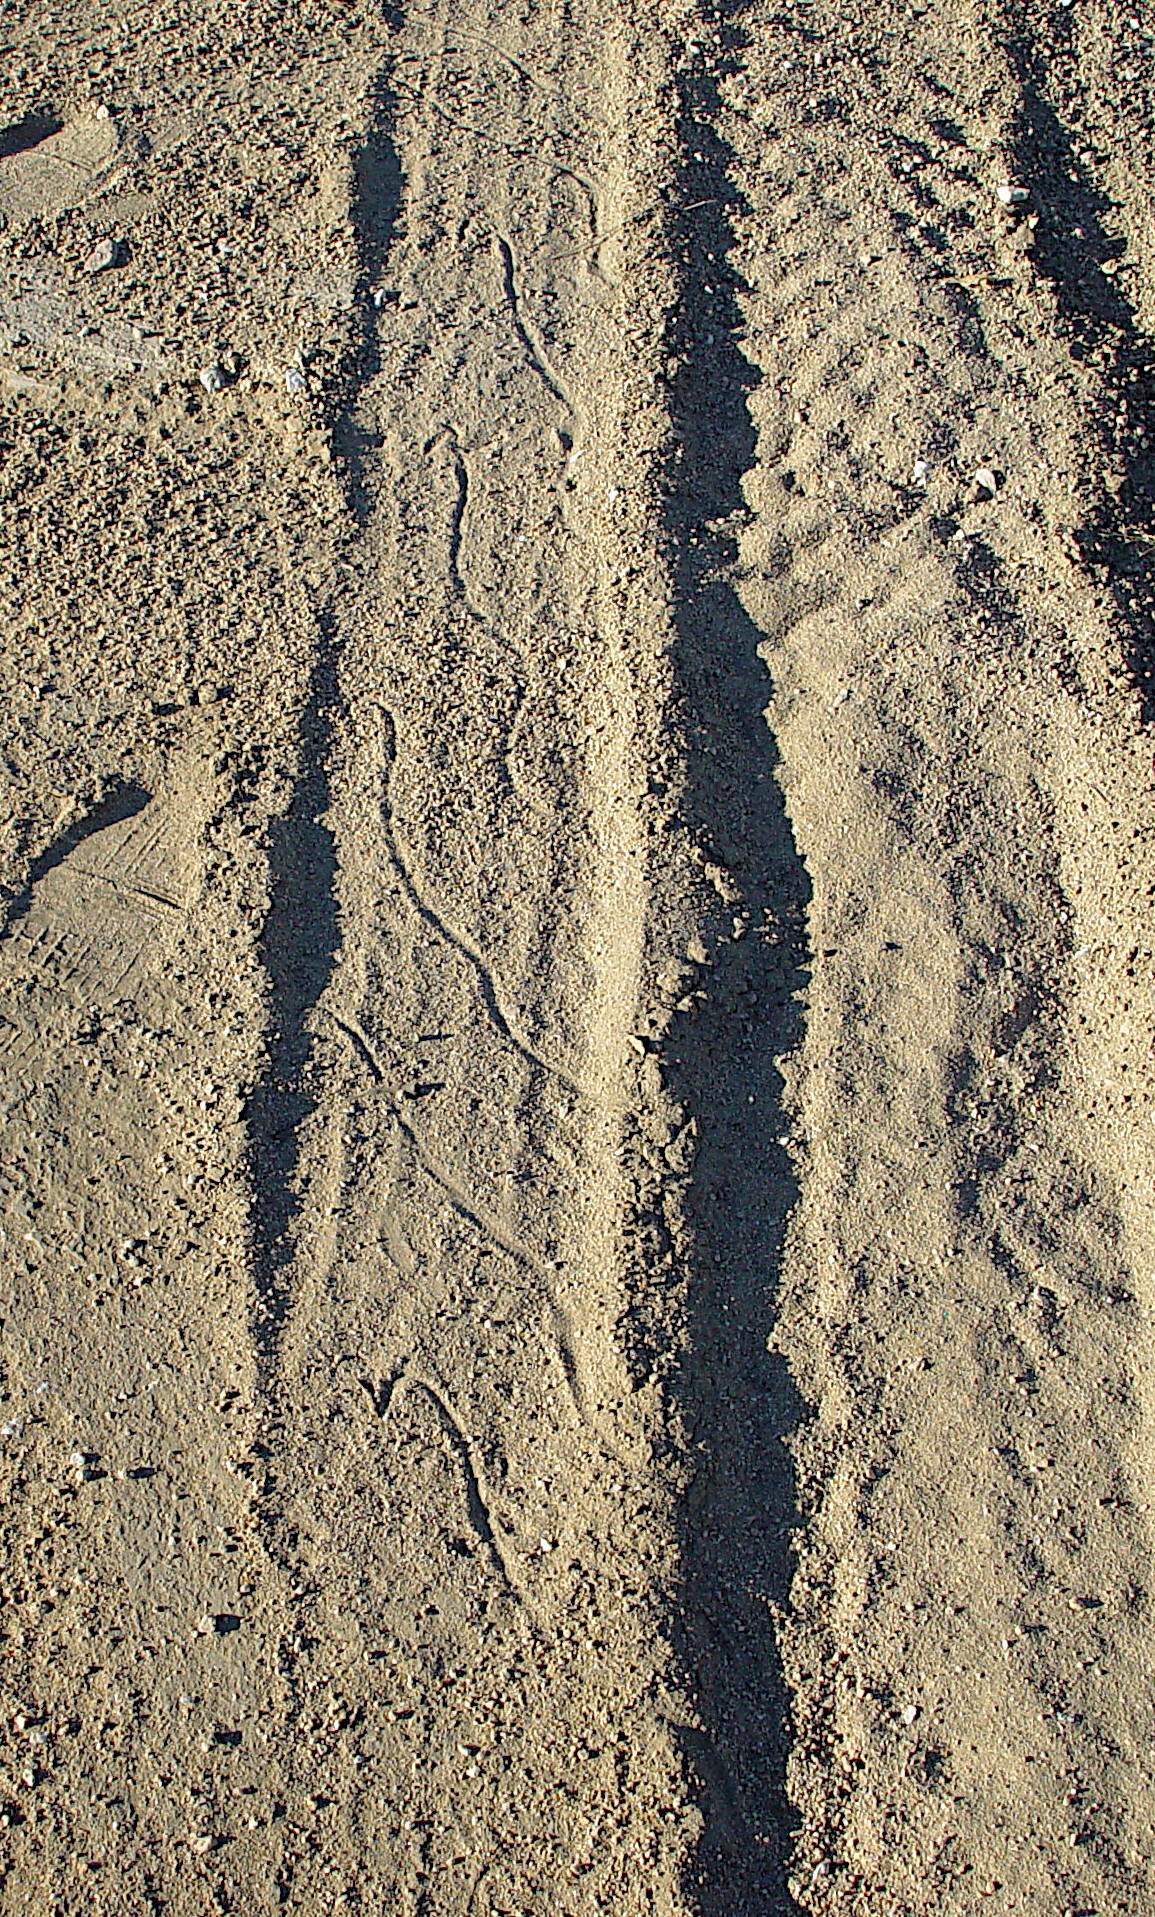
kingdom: Animalia
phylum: Chordata
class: Squamata
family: Viperidae
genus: Crotalus
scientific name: Crotalus cerastes
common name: Sidewinder
